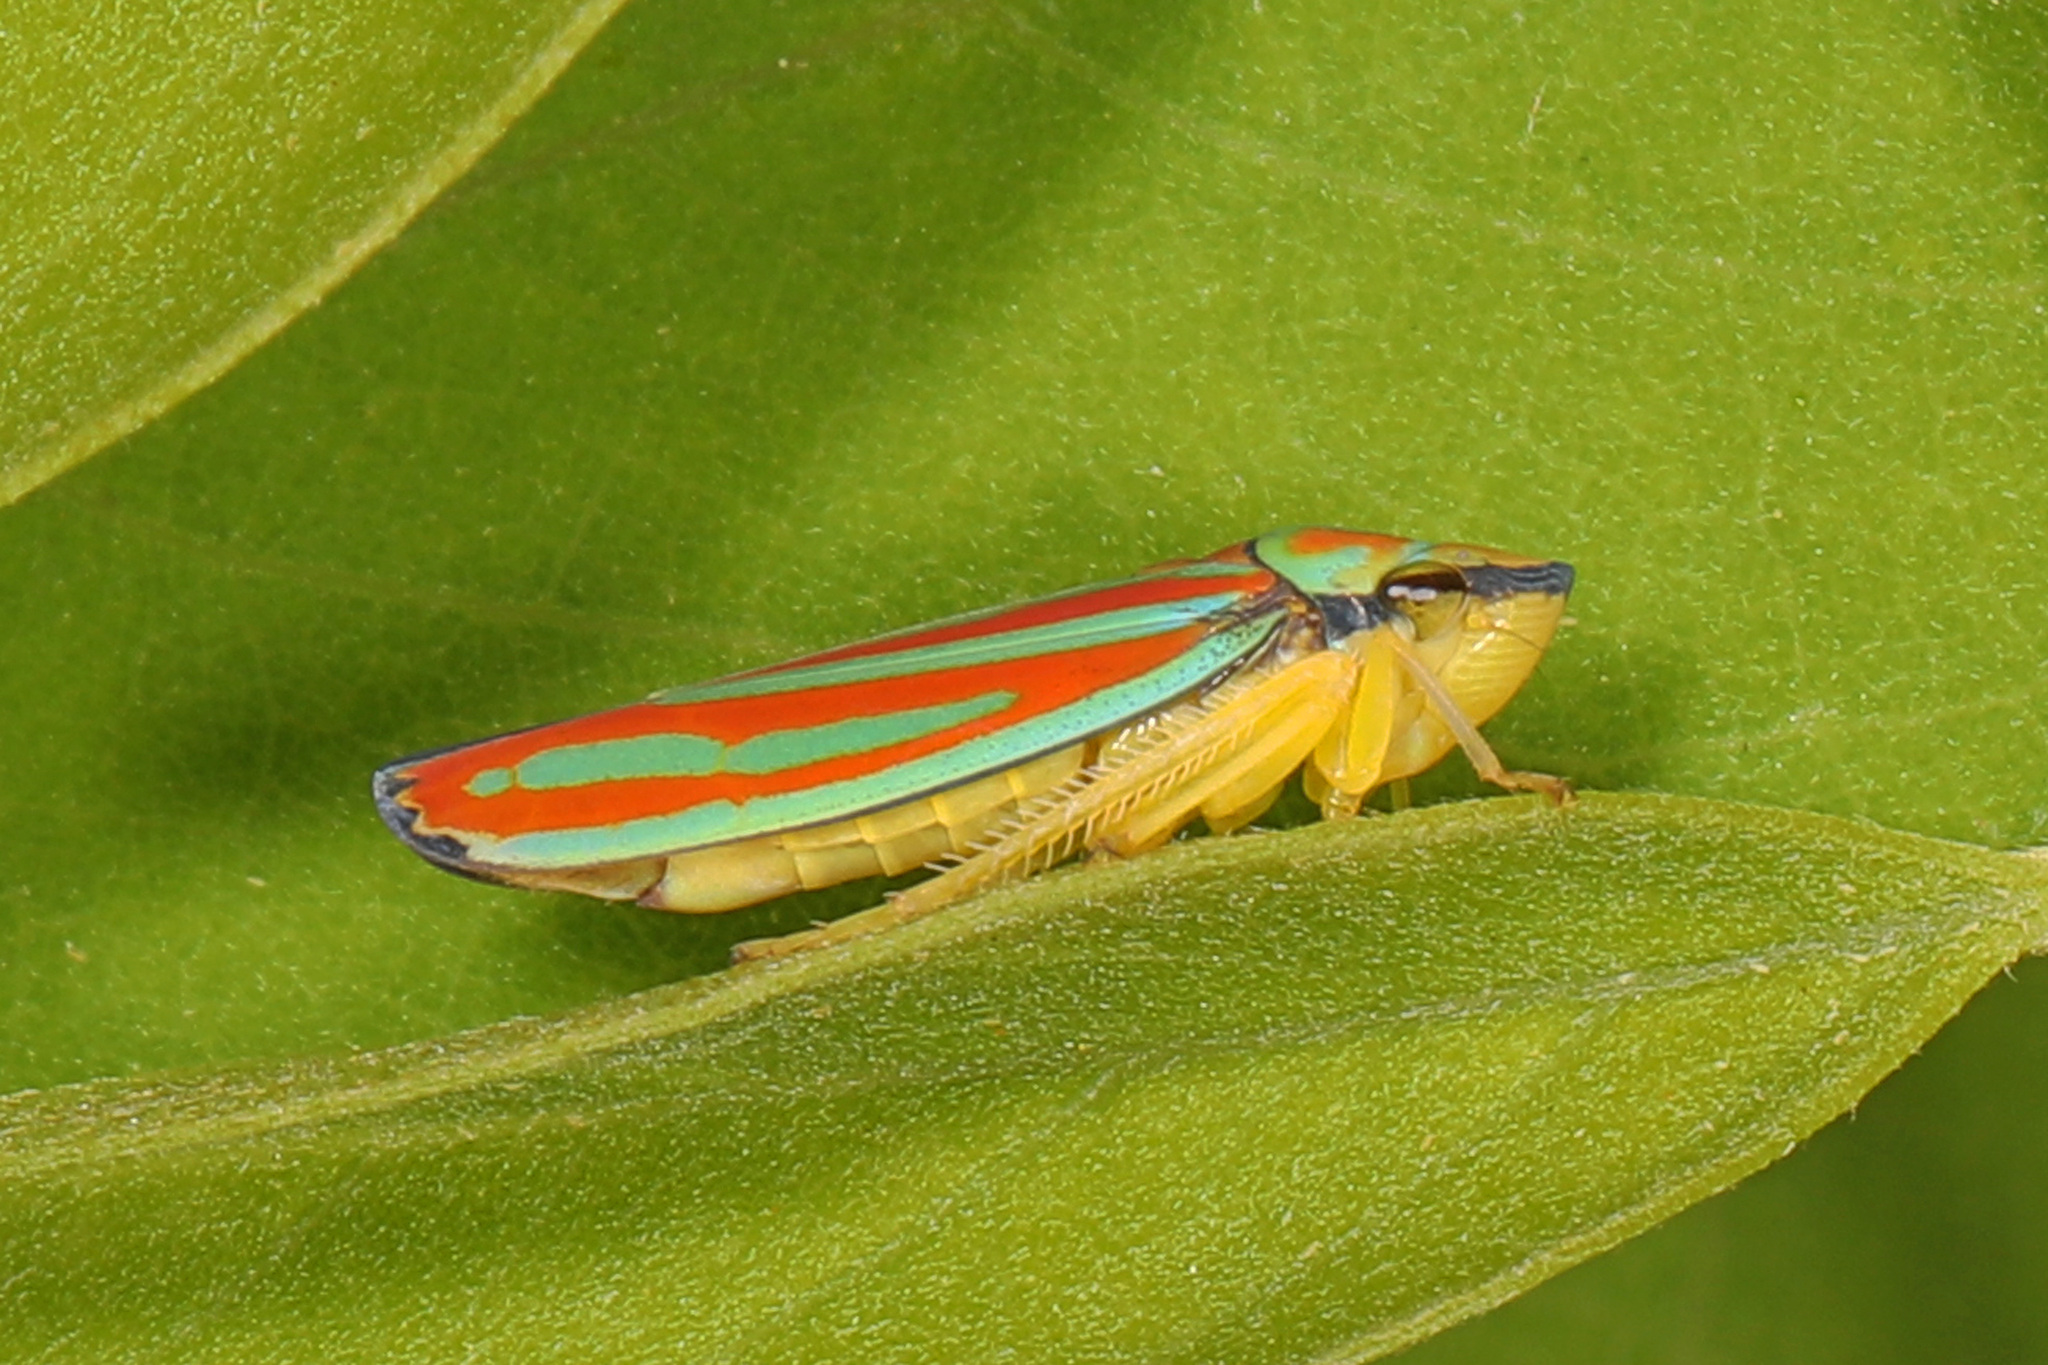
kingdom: Animalia
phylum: Arthropoda
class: Insecta
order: Hemiptera
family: Cicadellidae
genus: Graphocephala
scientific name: Graphocephala coccinea
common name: Candy-striped leafhopper
